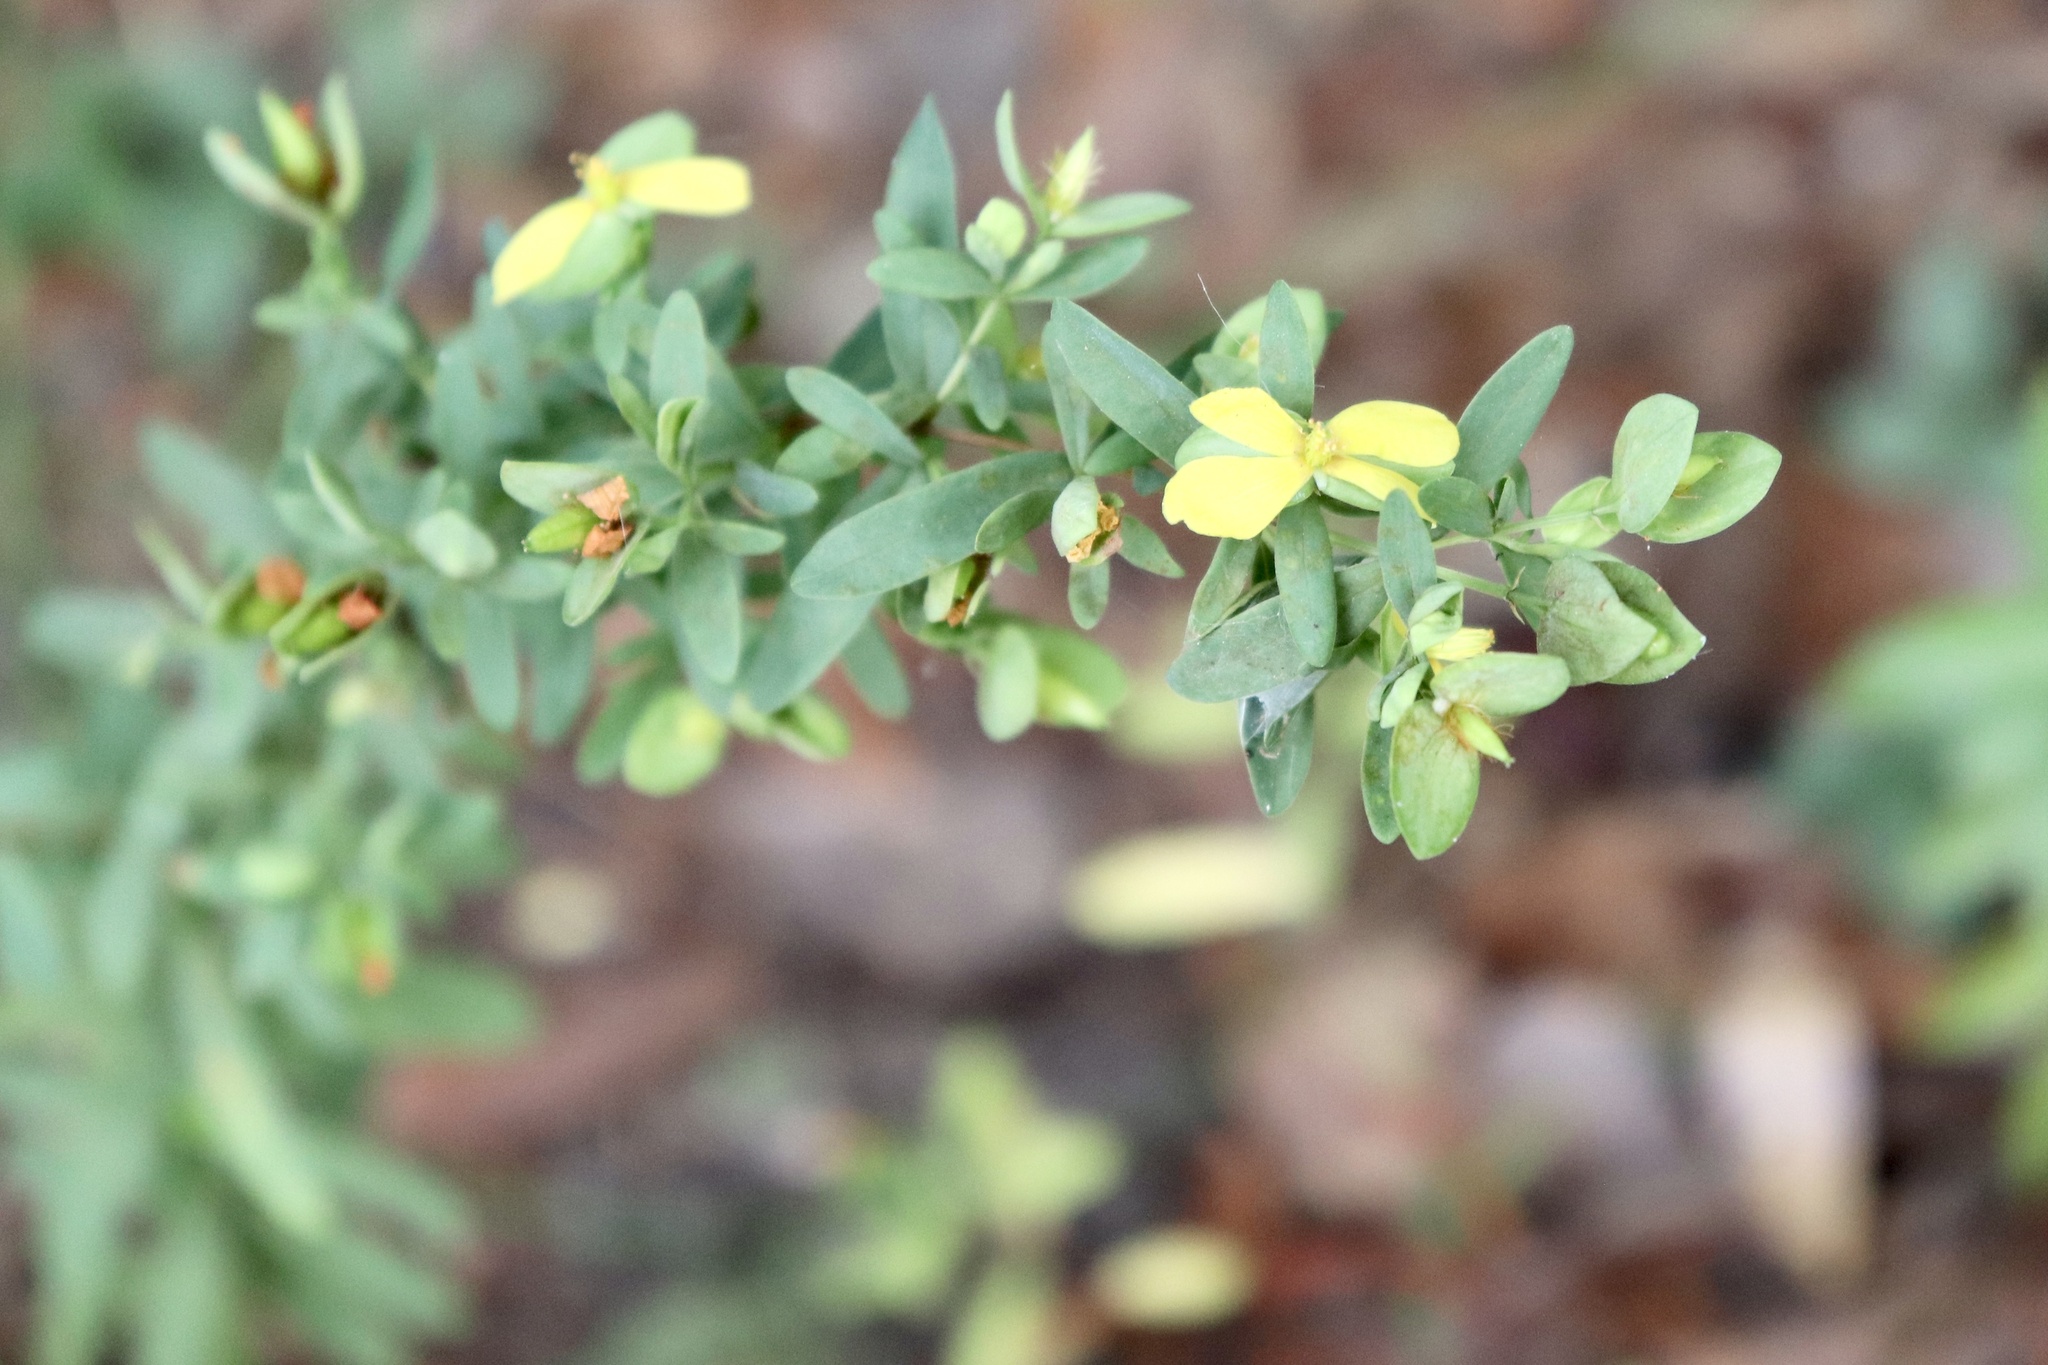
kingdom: Plantae
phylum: Tracheophyta
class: Magnoliopsida
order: Malpighiales
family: Hypericaceae
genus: Hypericum
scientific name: Hypericum hypericoides
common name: St. andrew's cross
